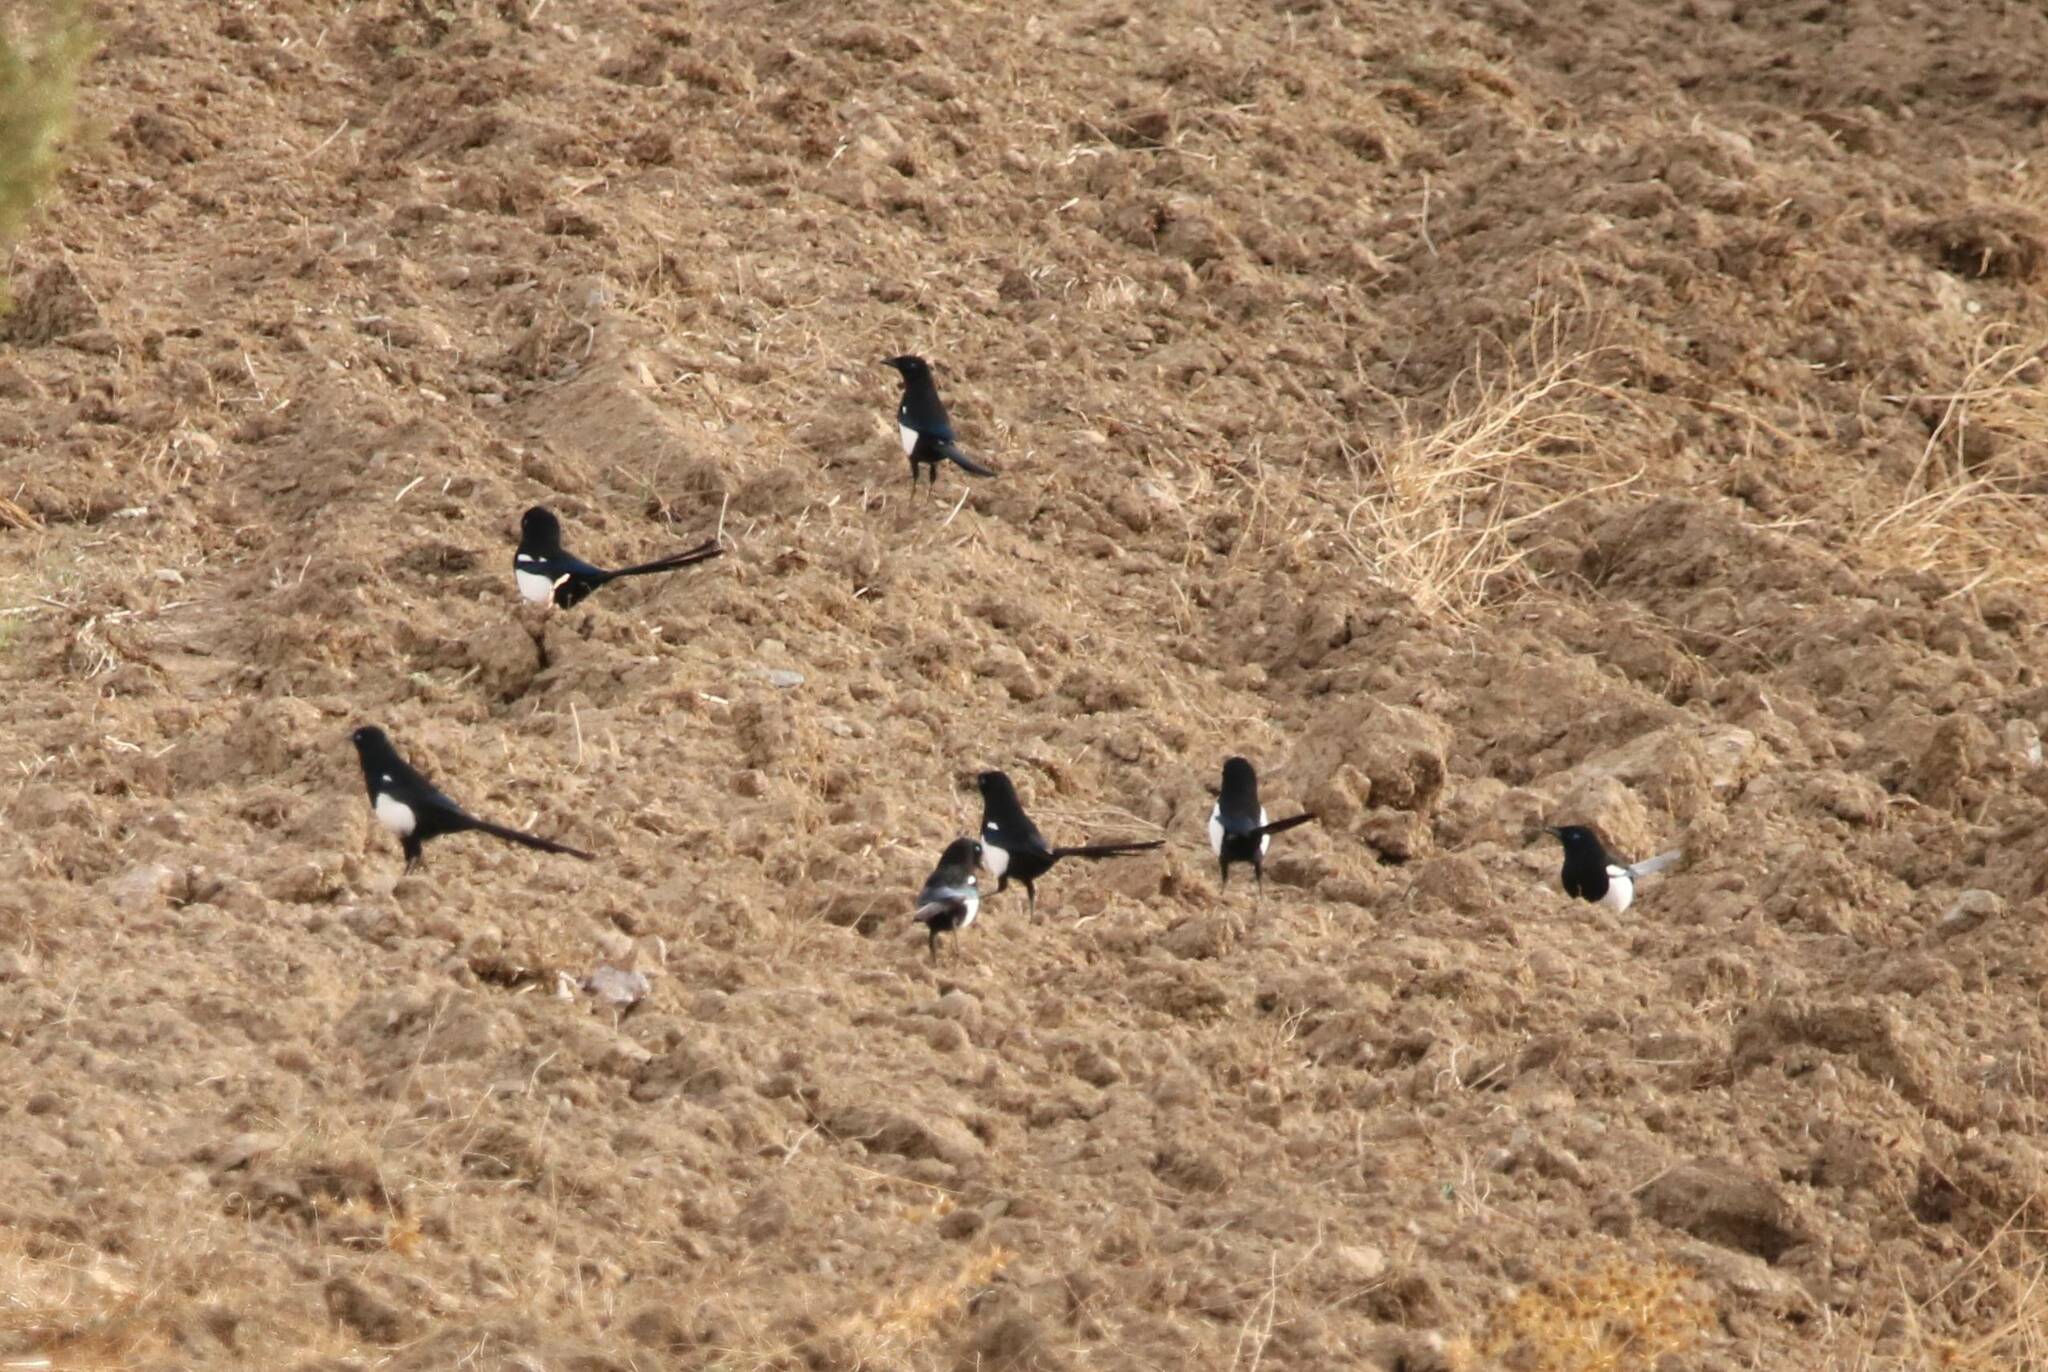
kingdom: Animalia
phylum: Chordata
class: Aves
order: Passeriformes
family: Corvidae
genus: Pica
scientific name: Pica mauritanica
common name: Maghreb magpie
